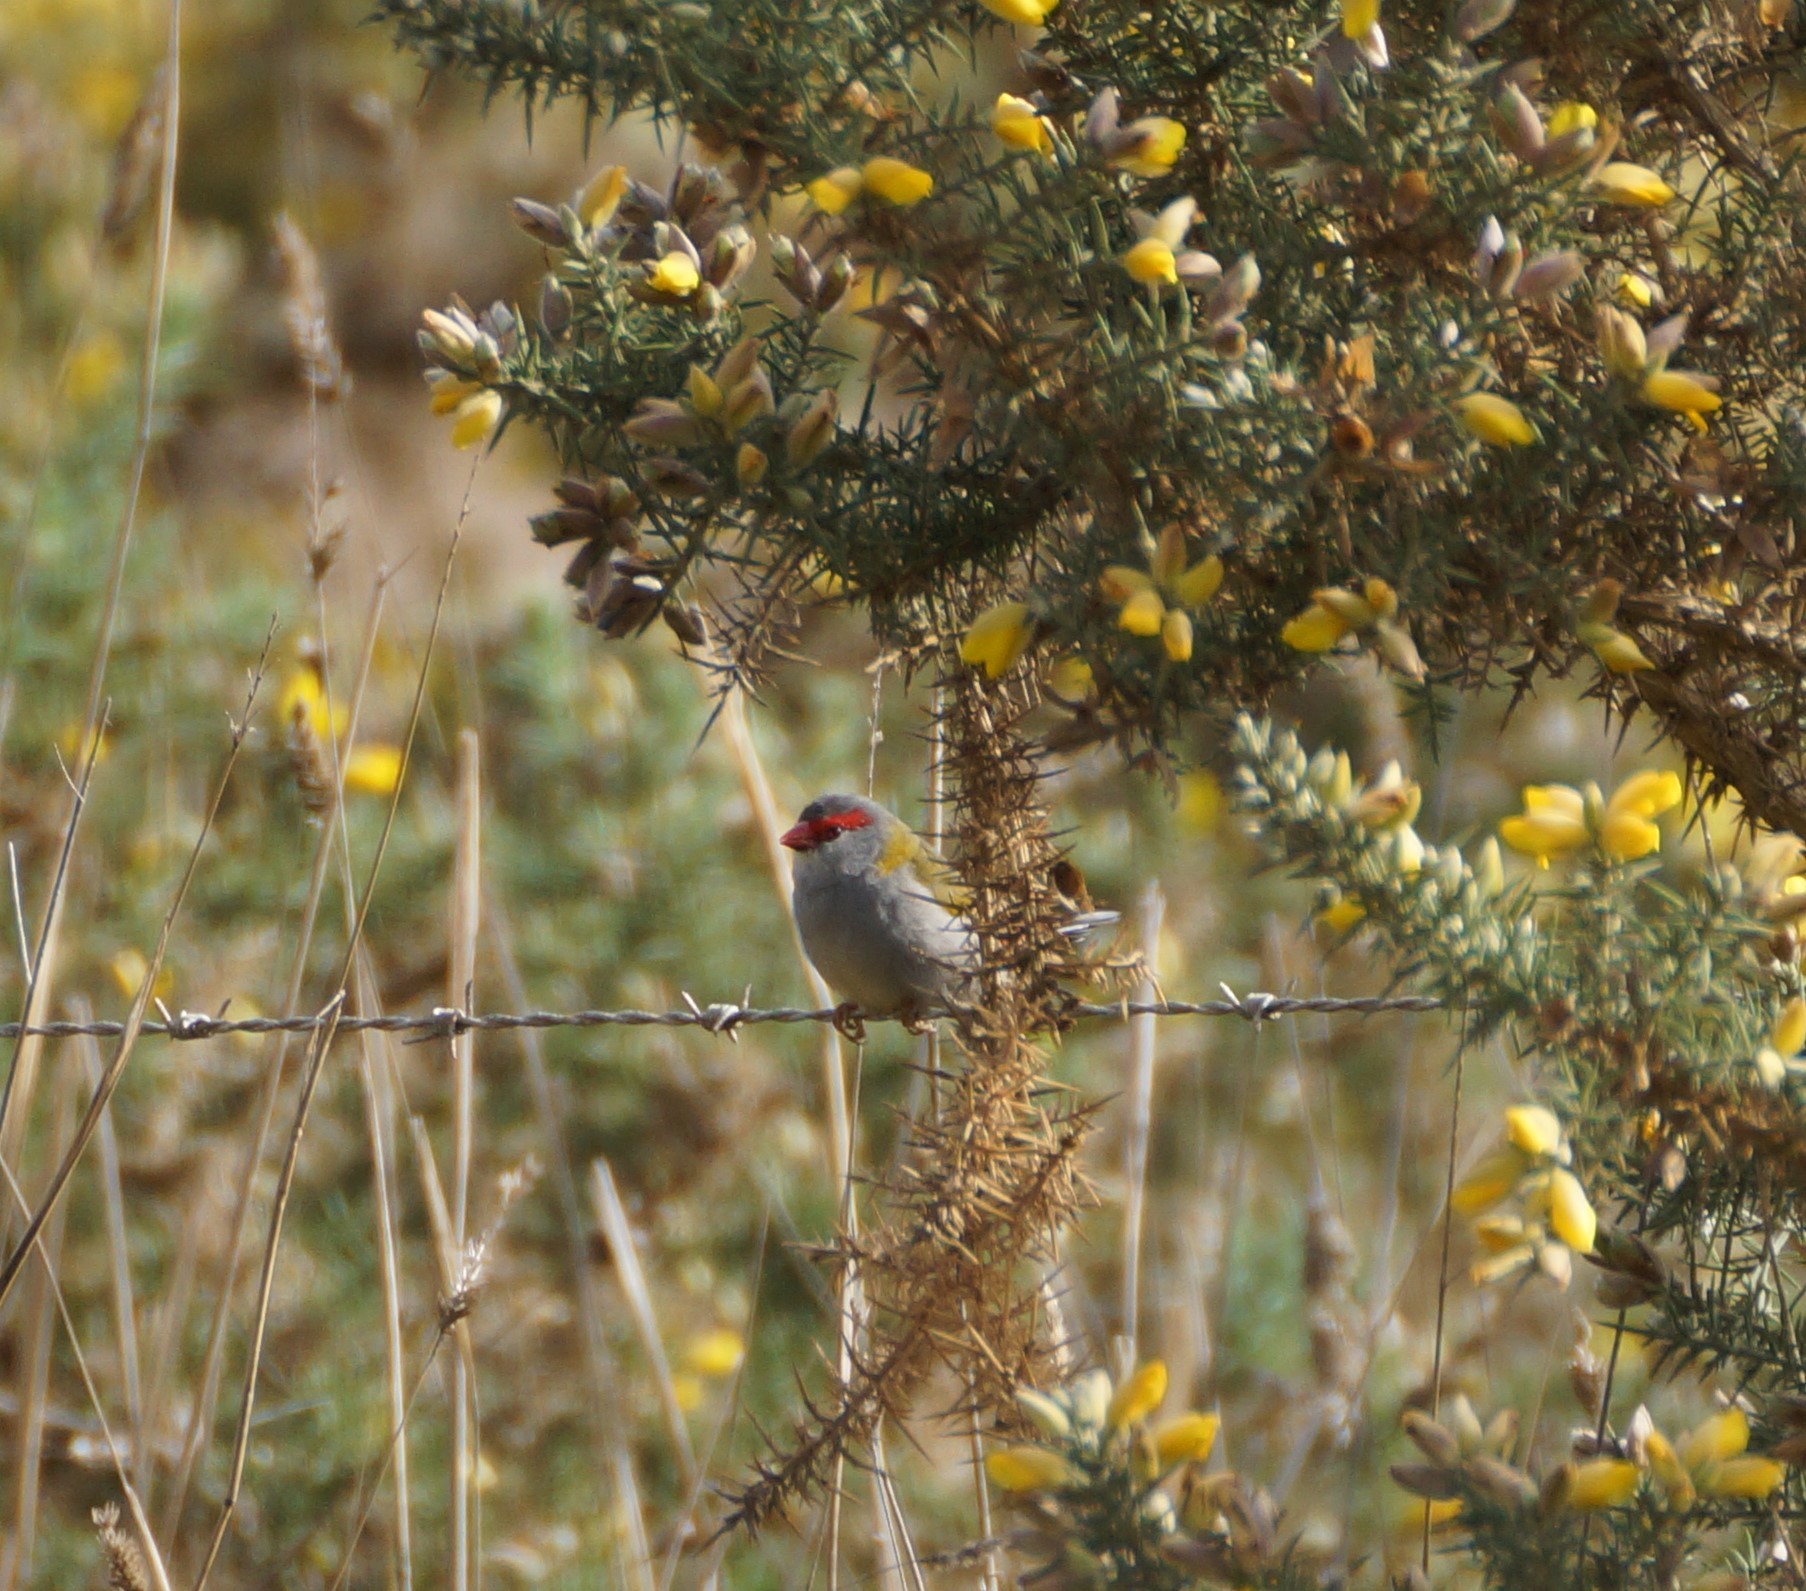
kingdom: Animalia
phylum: Chordata
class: Aves
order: Passeriformes
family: Estrildidae
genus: Neochmia
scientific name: Neochmia temporalis
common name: Red-browed finch
